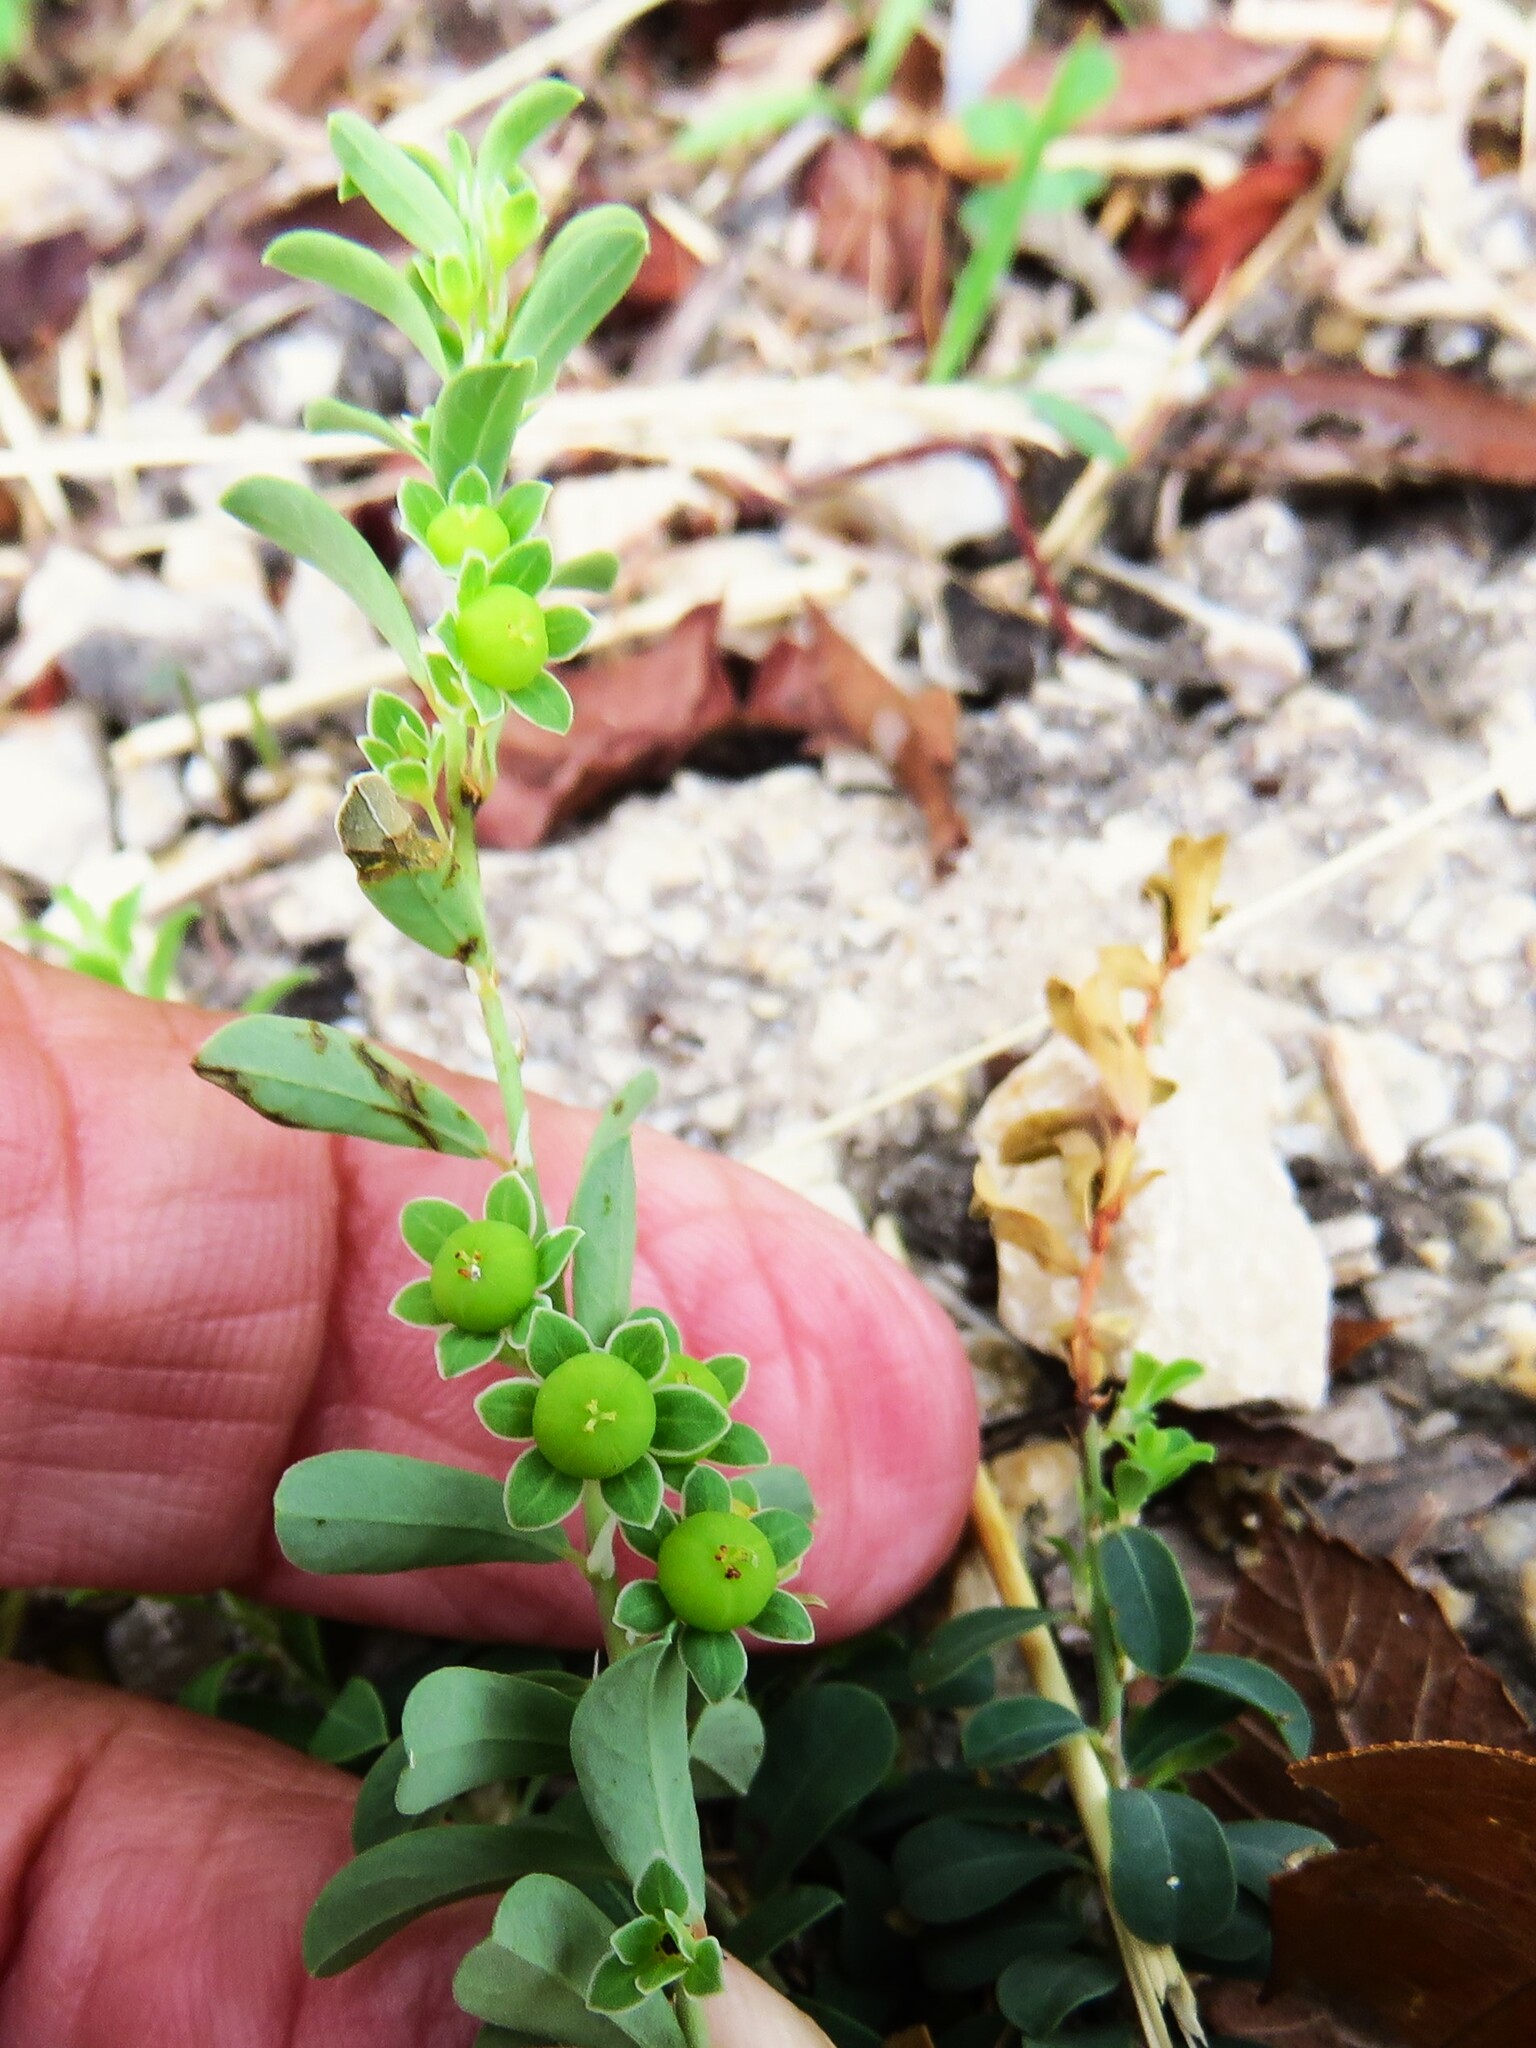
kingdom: Plantae
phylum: Tracheophyta
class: Magnoliopsida
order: Malpighiales
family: Phyllanthaceae
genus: Phyllanthus
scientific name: Phyllanthus polygonoides
